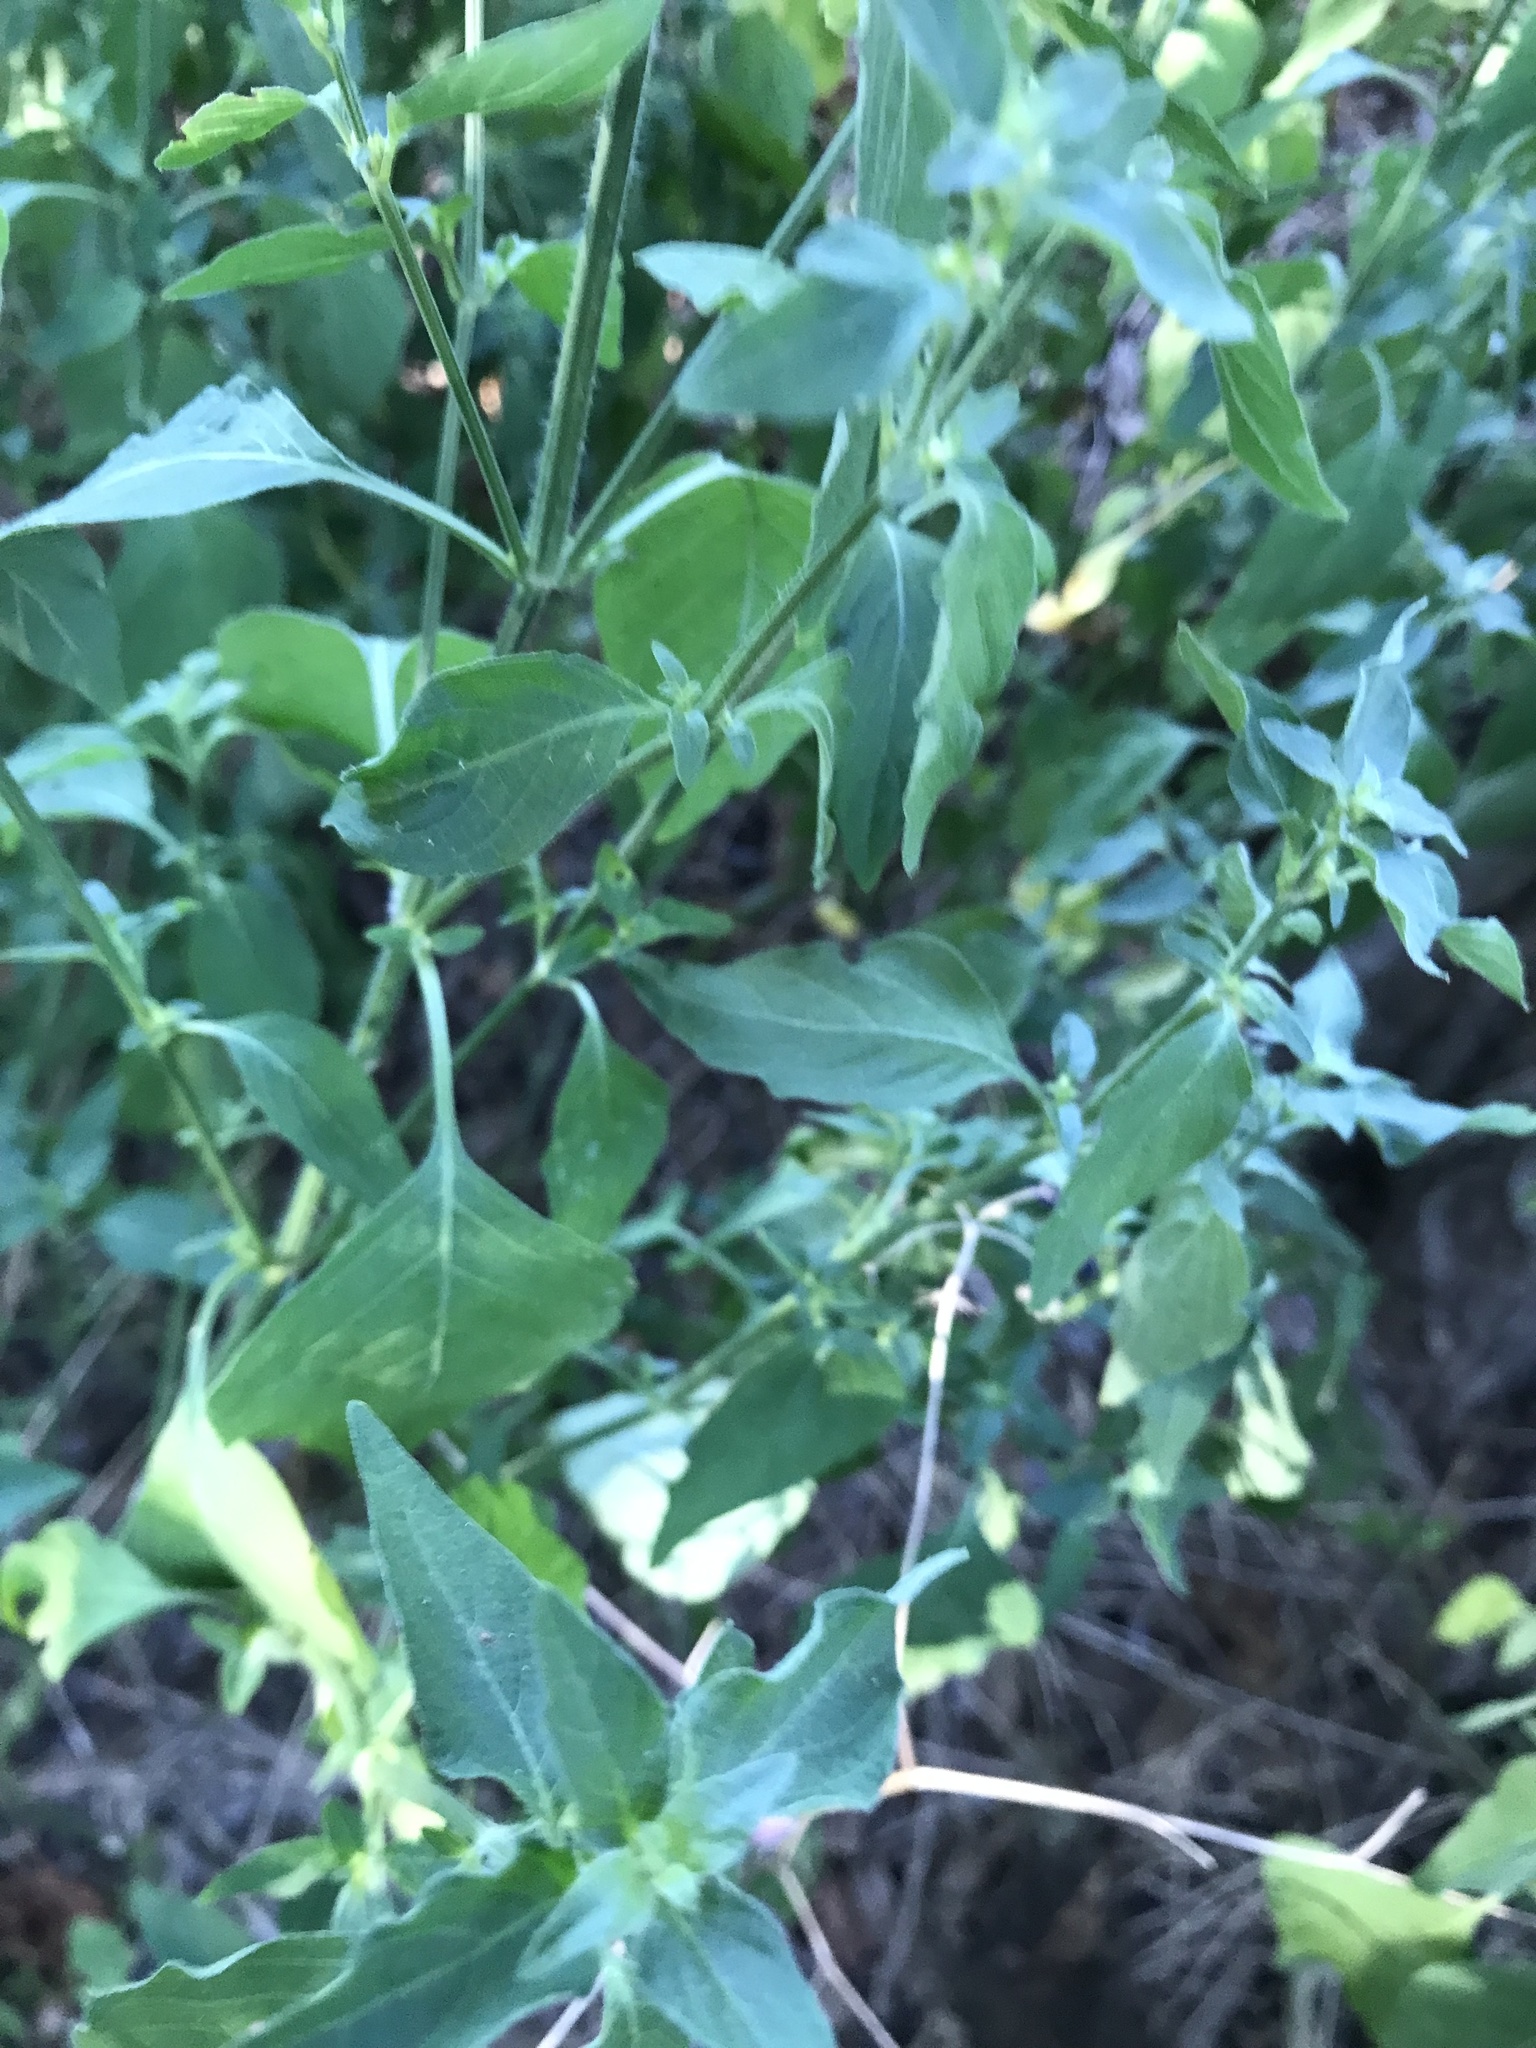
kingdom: Plantae
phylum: Tracheophyta
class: Magnoliopsida
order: Lamiales
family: Acanthaceae
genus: Dicliptera
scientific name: Dicliptera brachiata
